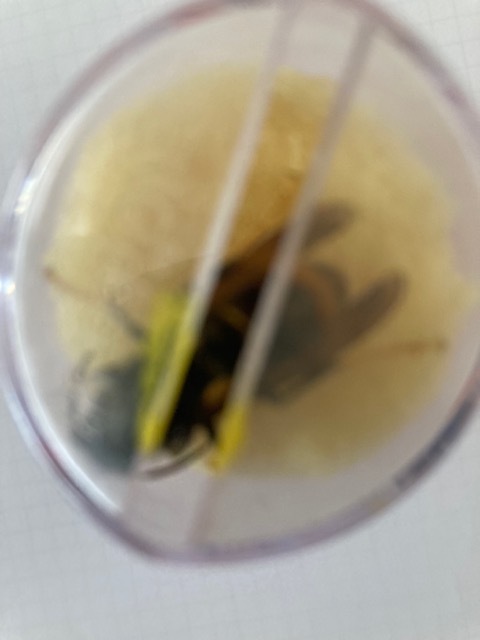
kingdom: Animalia
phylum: Arthropoda
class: Insecta
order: Hymenoptera
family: Vespidae
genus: Vespa
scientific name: Vespa velutina
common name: Asian hornet
